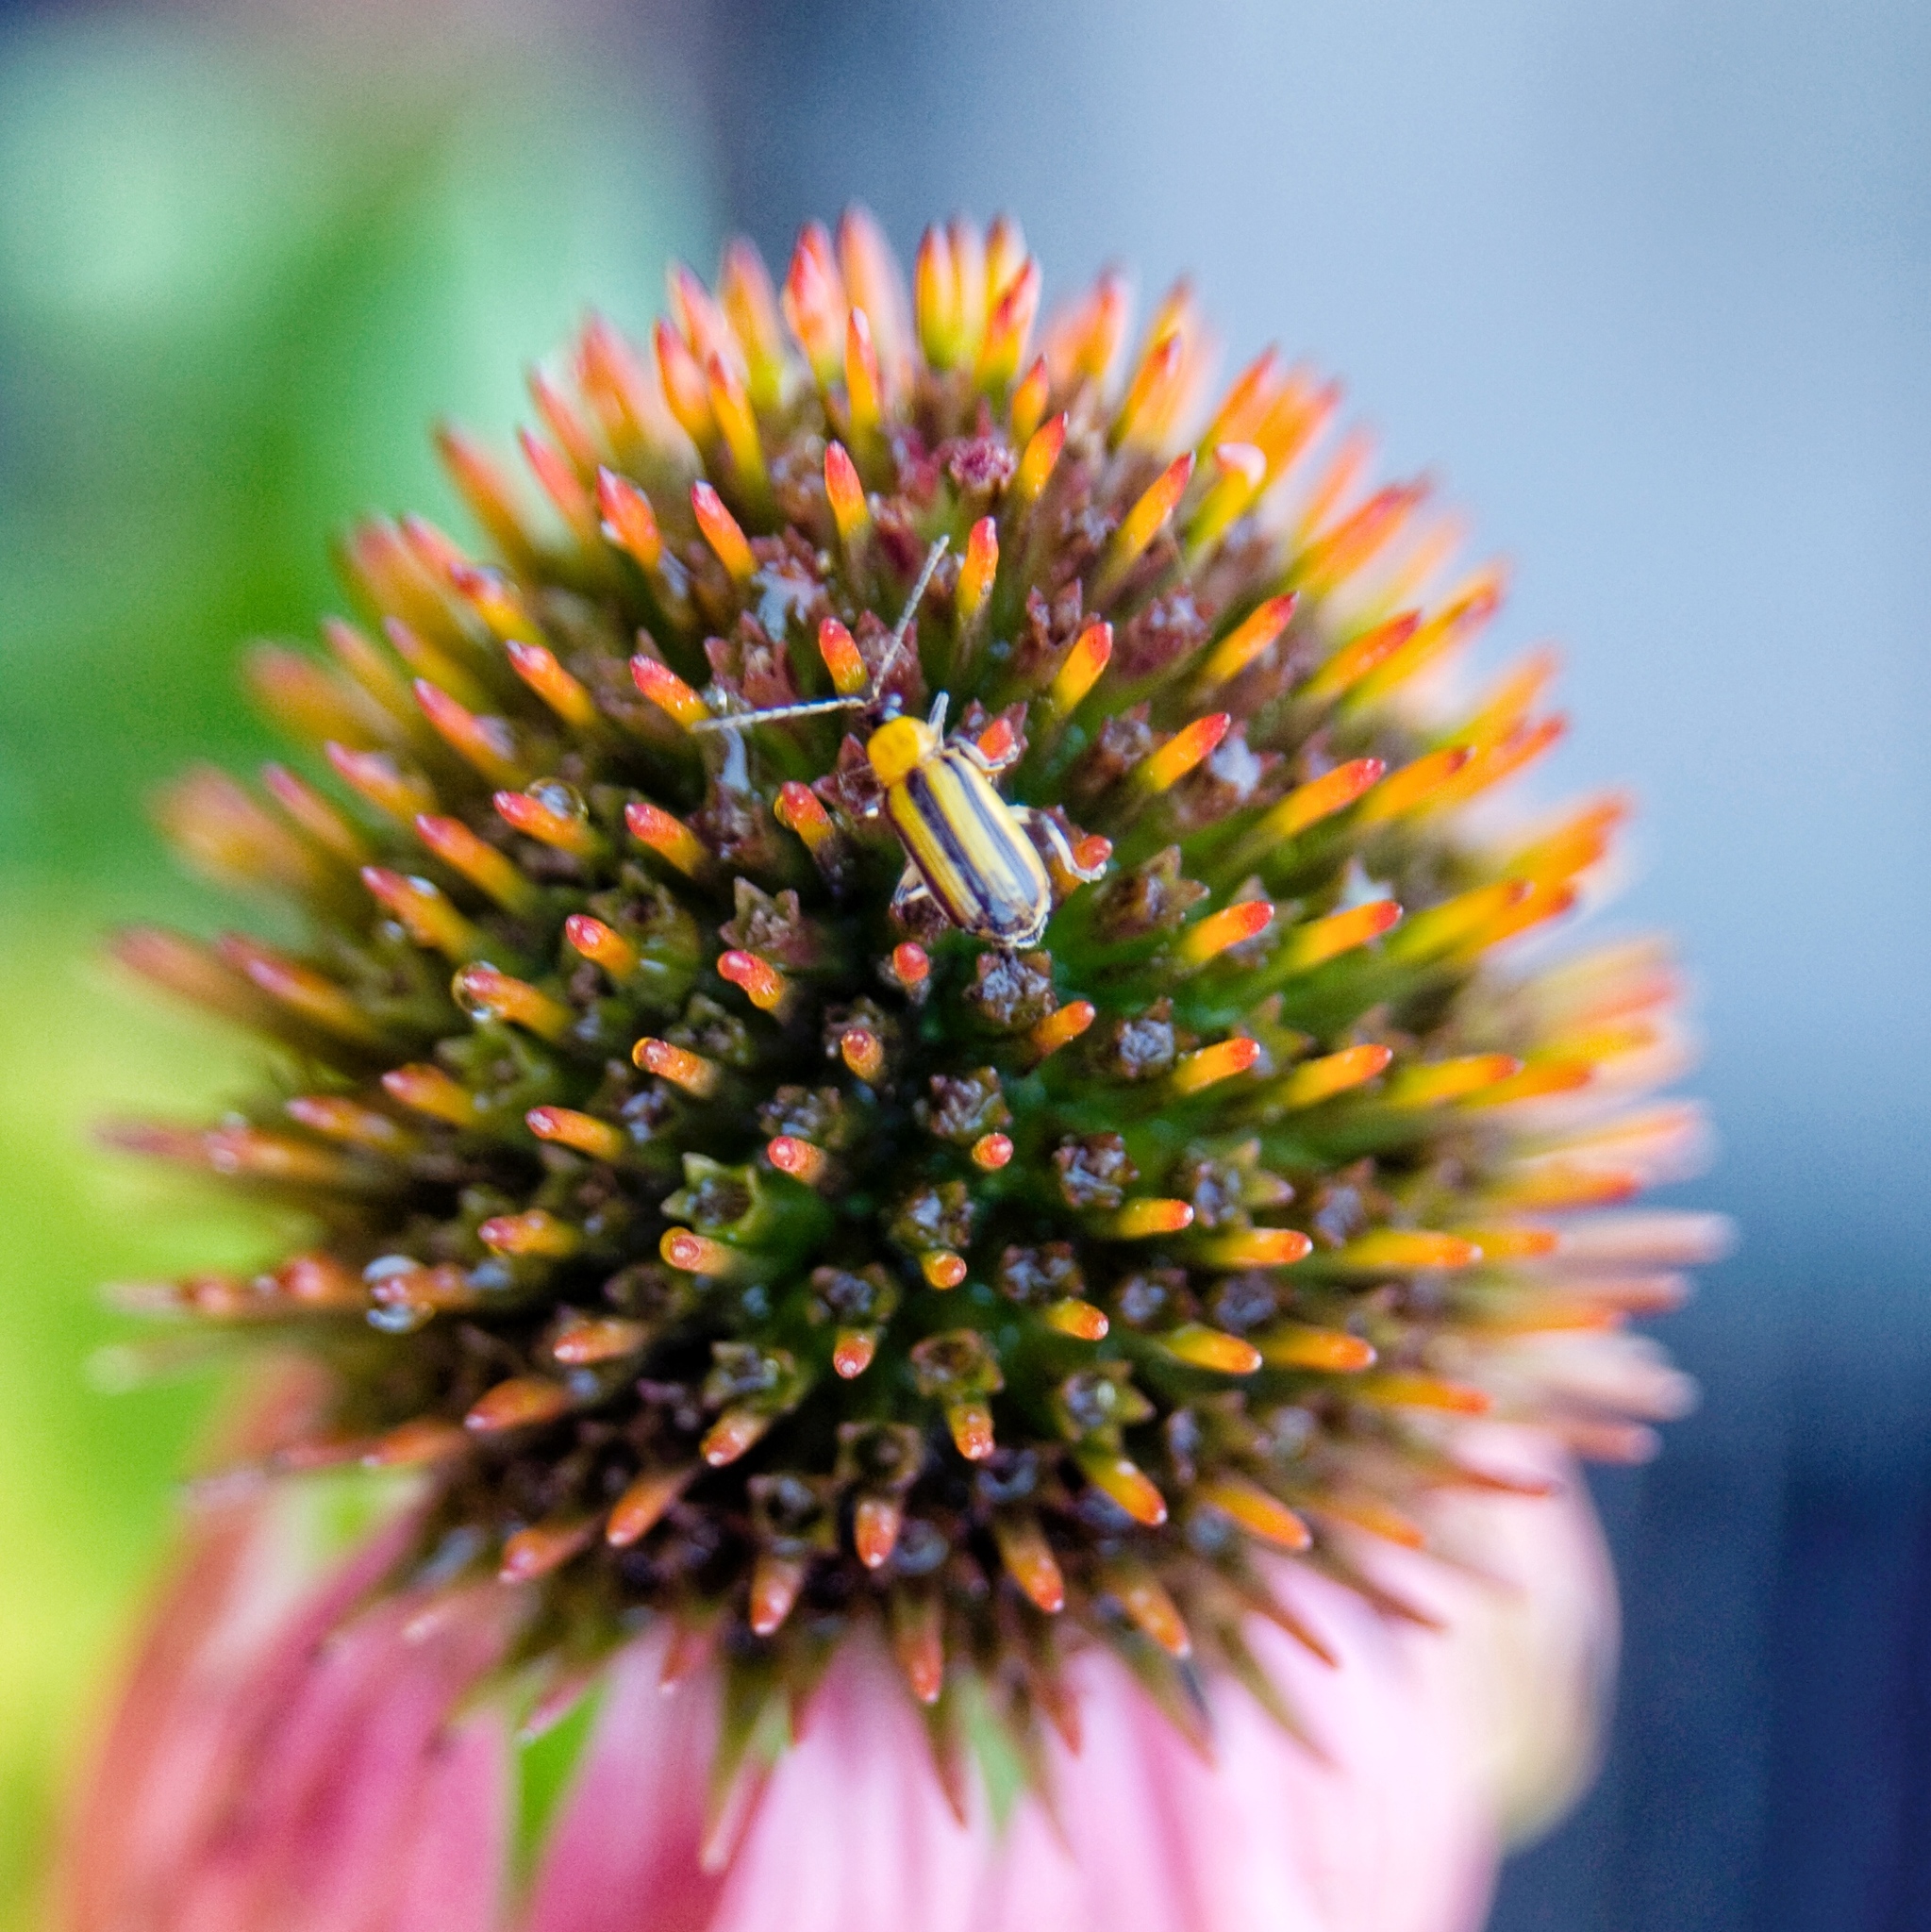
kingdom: Animalia
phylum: Arthropoda
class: Insecta
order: Coleoptera
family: Chrysomelidae
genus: Acalymma
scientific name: Acalymma vittatum
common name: Striped cucumber beetle
